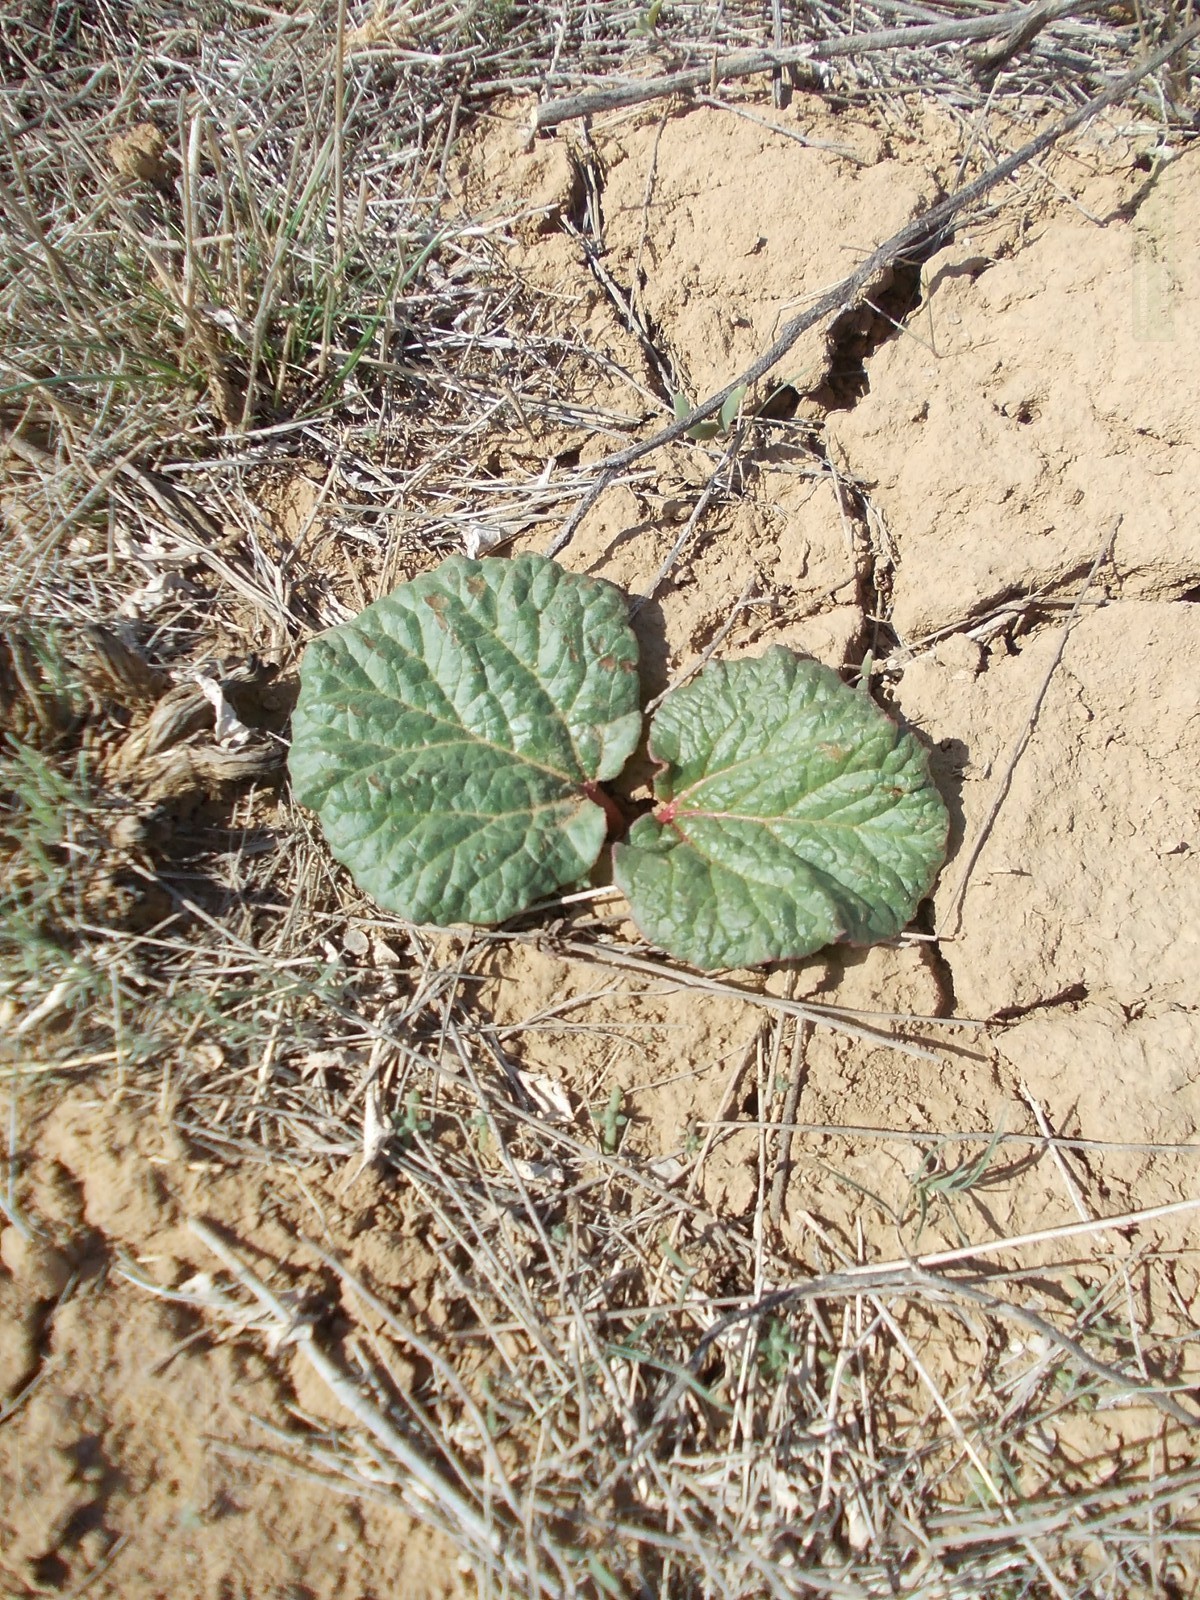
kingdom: Plantae
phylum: Tracheophyta
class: Magnoliopsida
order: Caryophyllales
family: Polygonaceae
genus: Rheum
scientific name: Rheum tataricum
